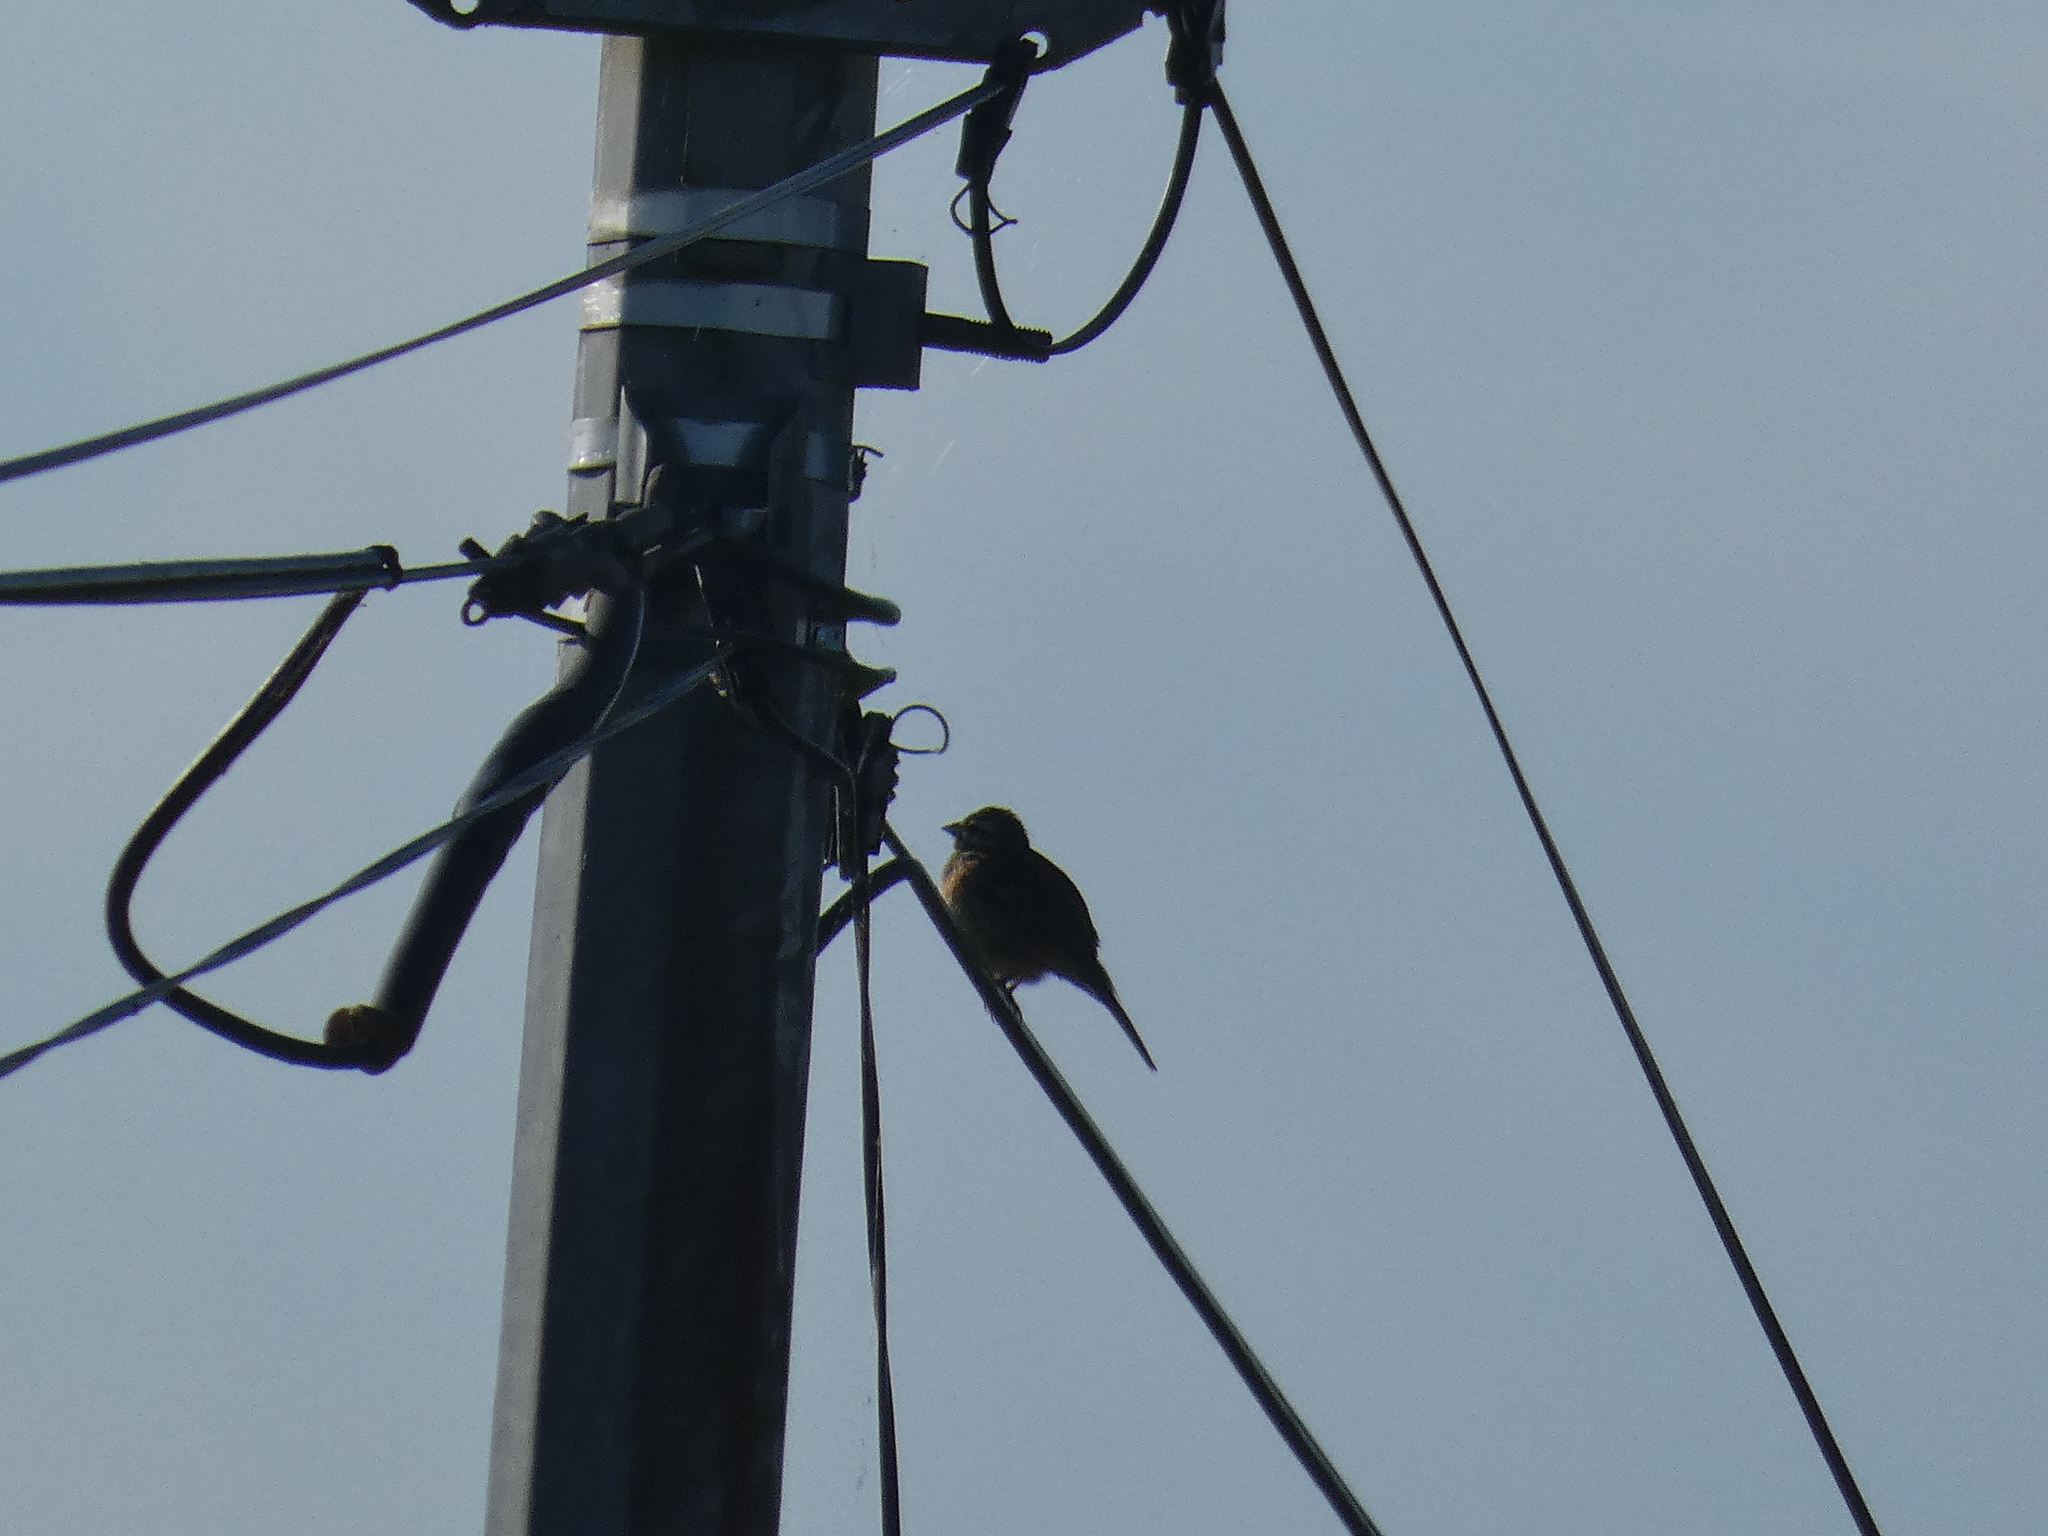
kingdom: Animalia
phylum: Chordata
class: Aves
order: Passeriformes
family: Emberizidae
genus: Emberiza
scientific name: Emberiza cirlus
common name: Cirl bunting
